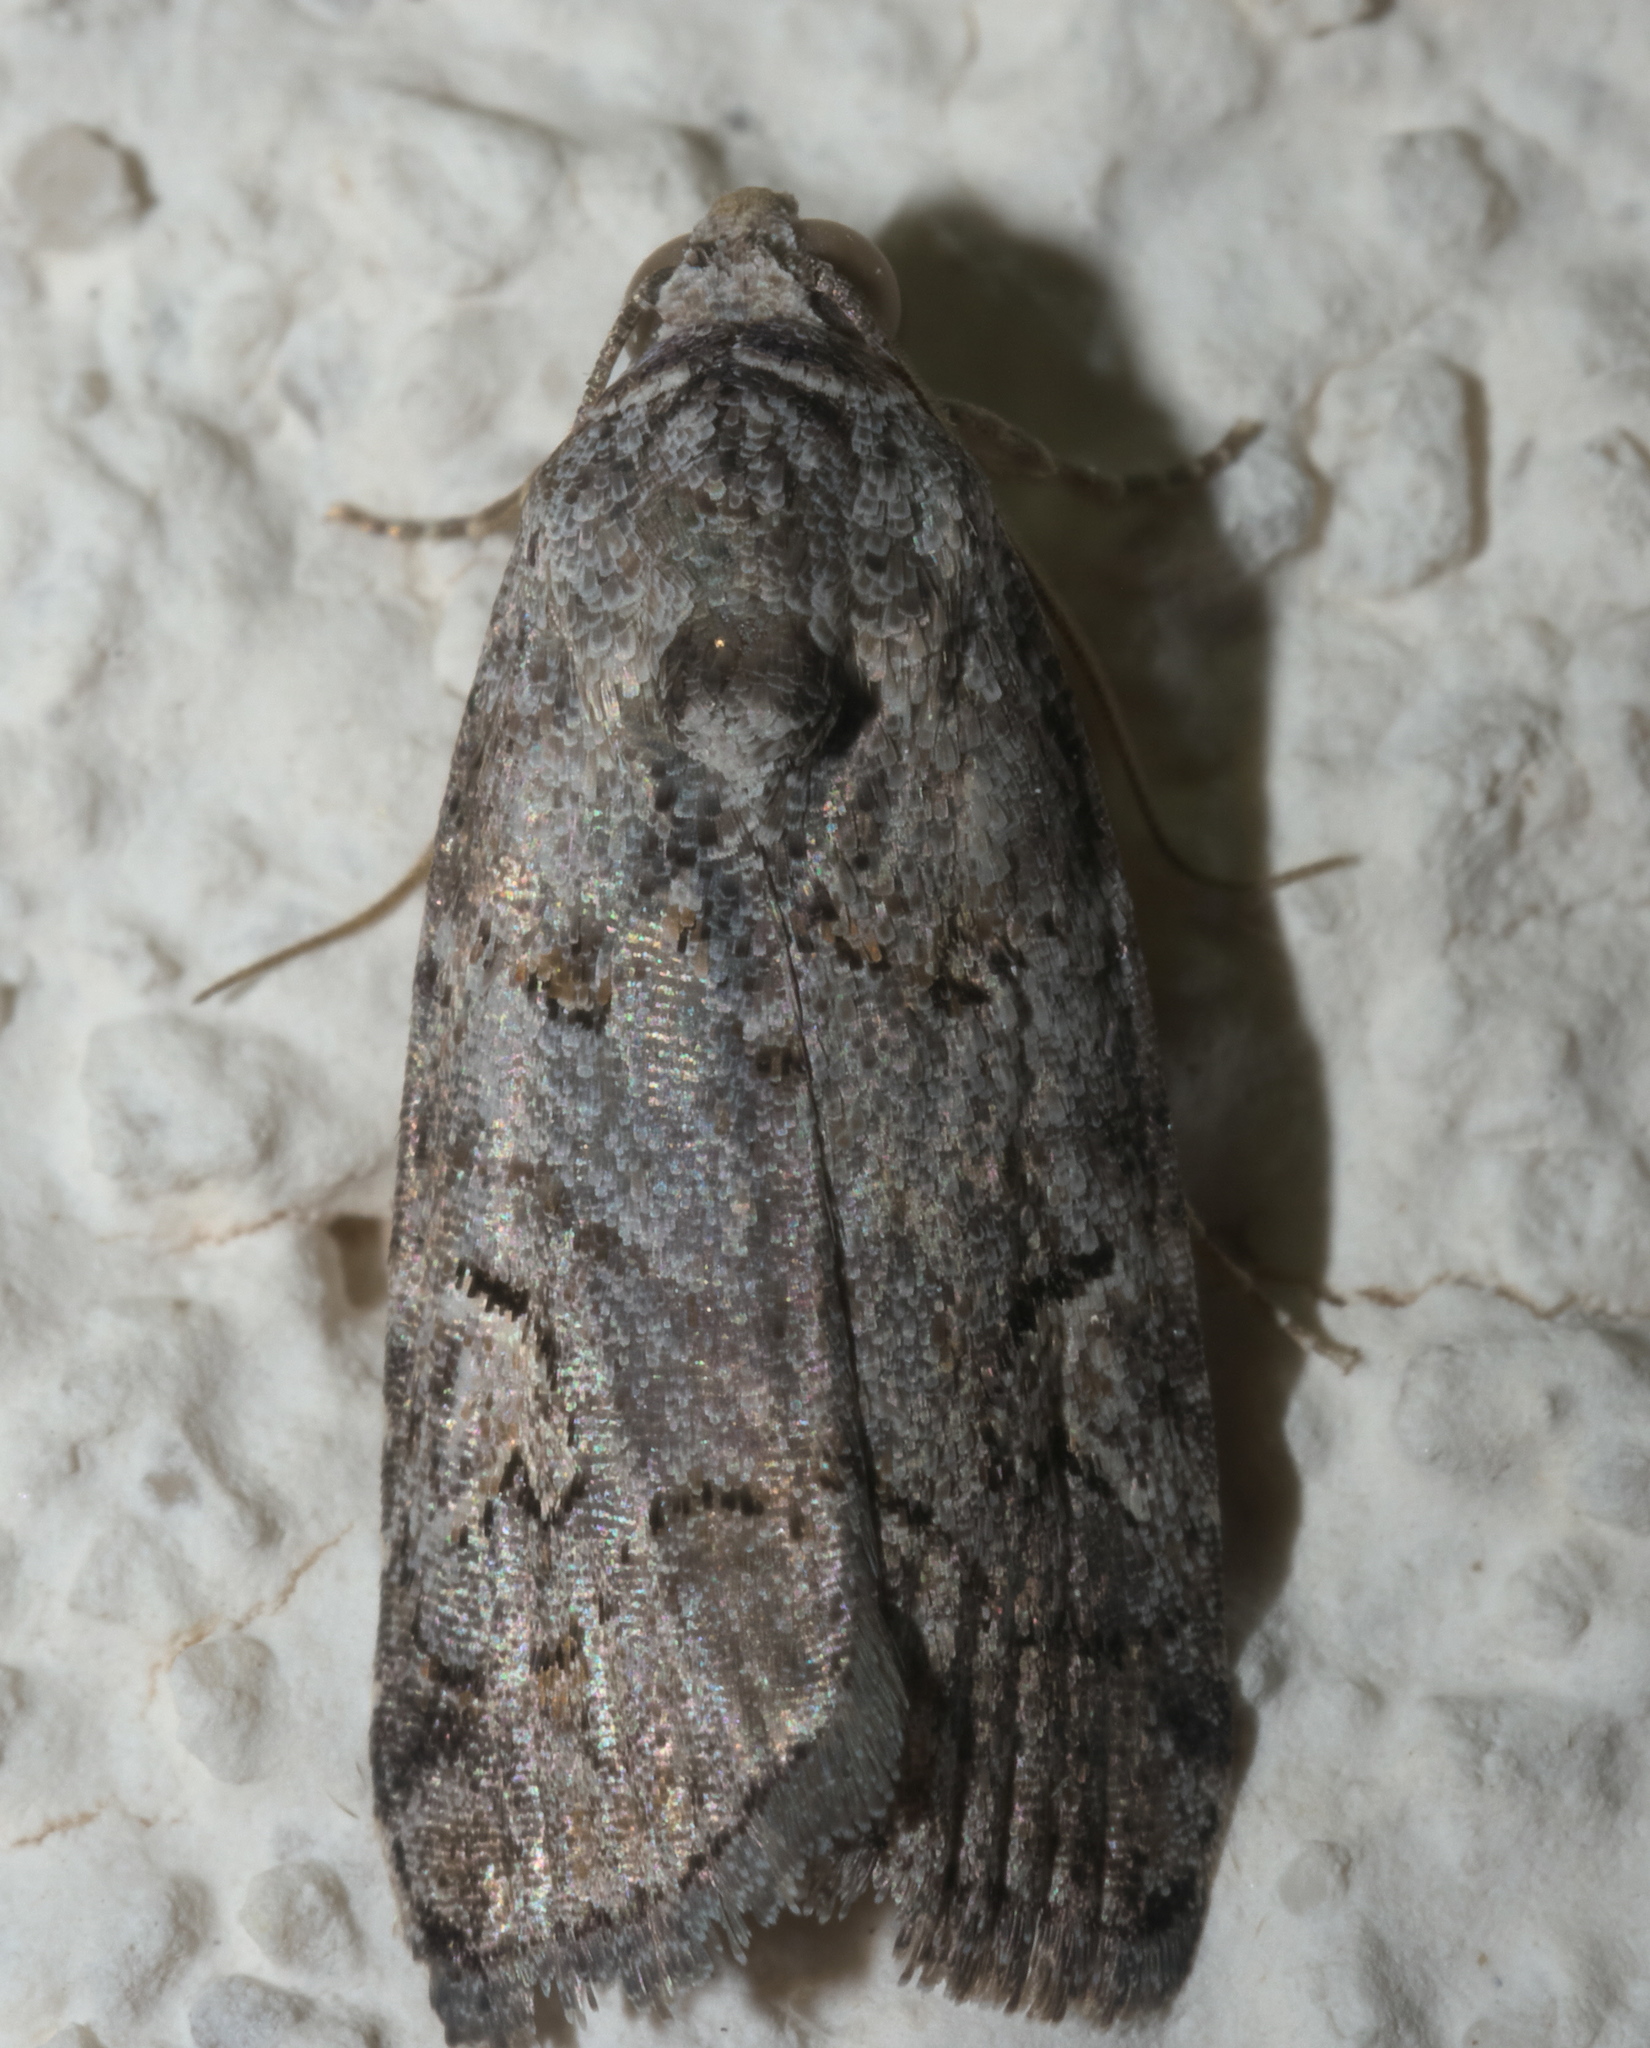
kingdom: Animalia
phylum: Arthropoda
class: Insecta
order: Lepidoptera
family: Noctuidae
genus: Metaponpneumata
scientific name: Metaponpneumata rogenhoferi
